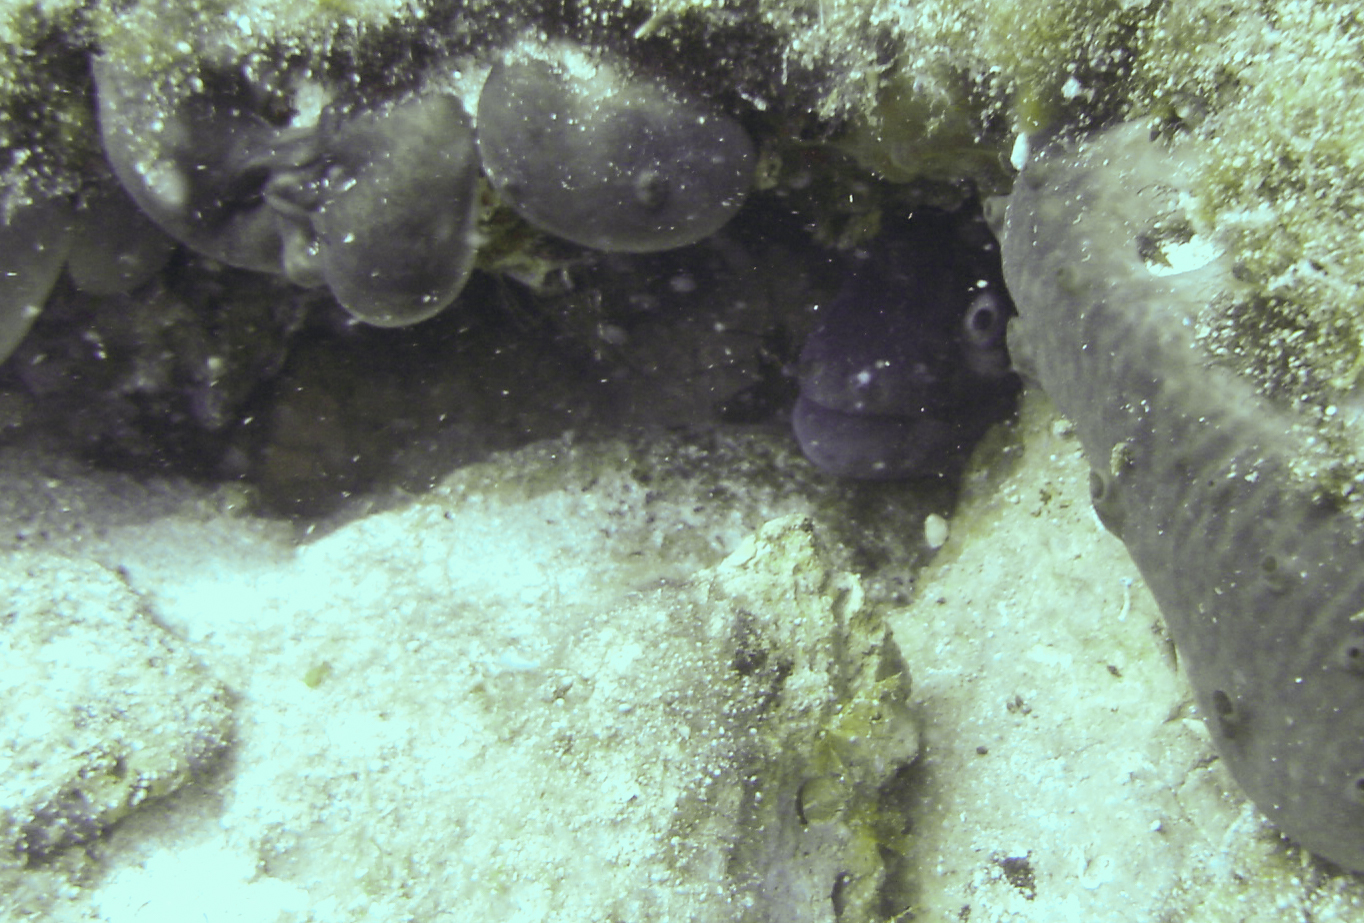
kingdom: Animalia
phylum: Chordata
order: Anguilliformes
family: Muraenidae
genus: Muraena
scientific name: Muraena helena
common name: Mediterranean moray
